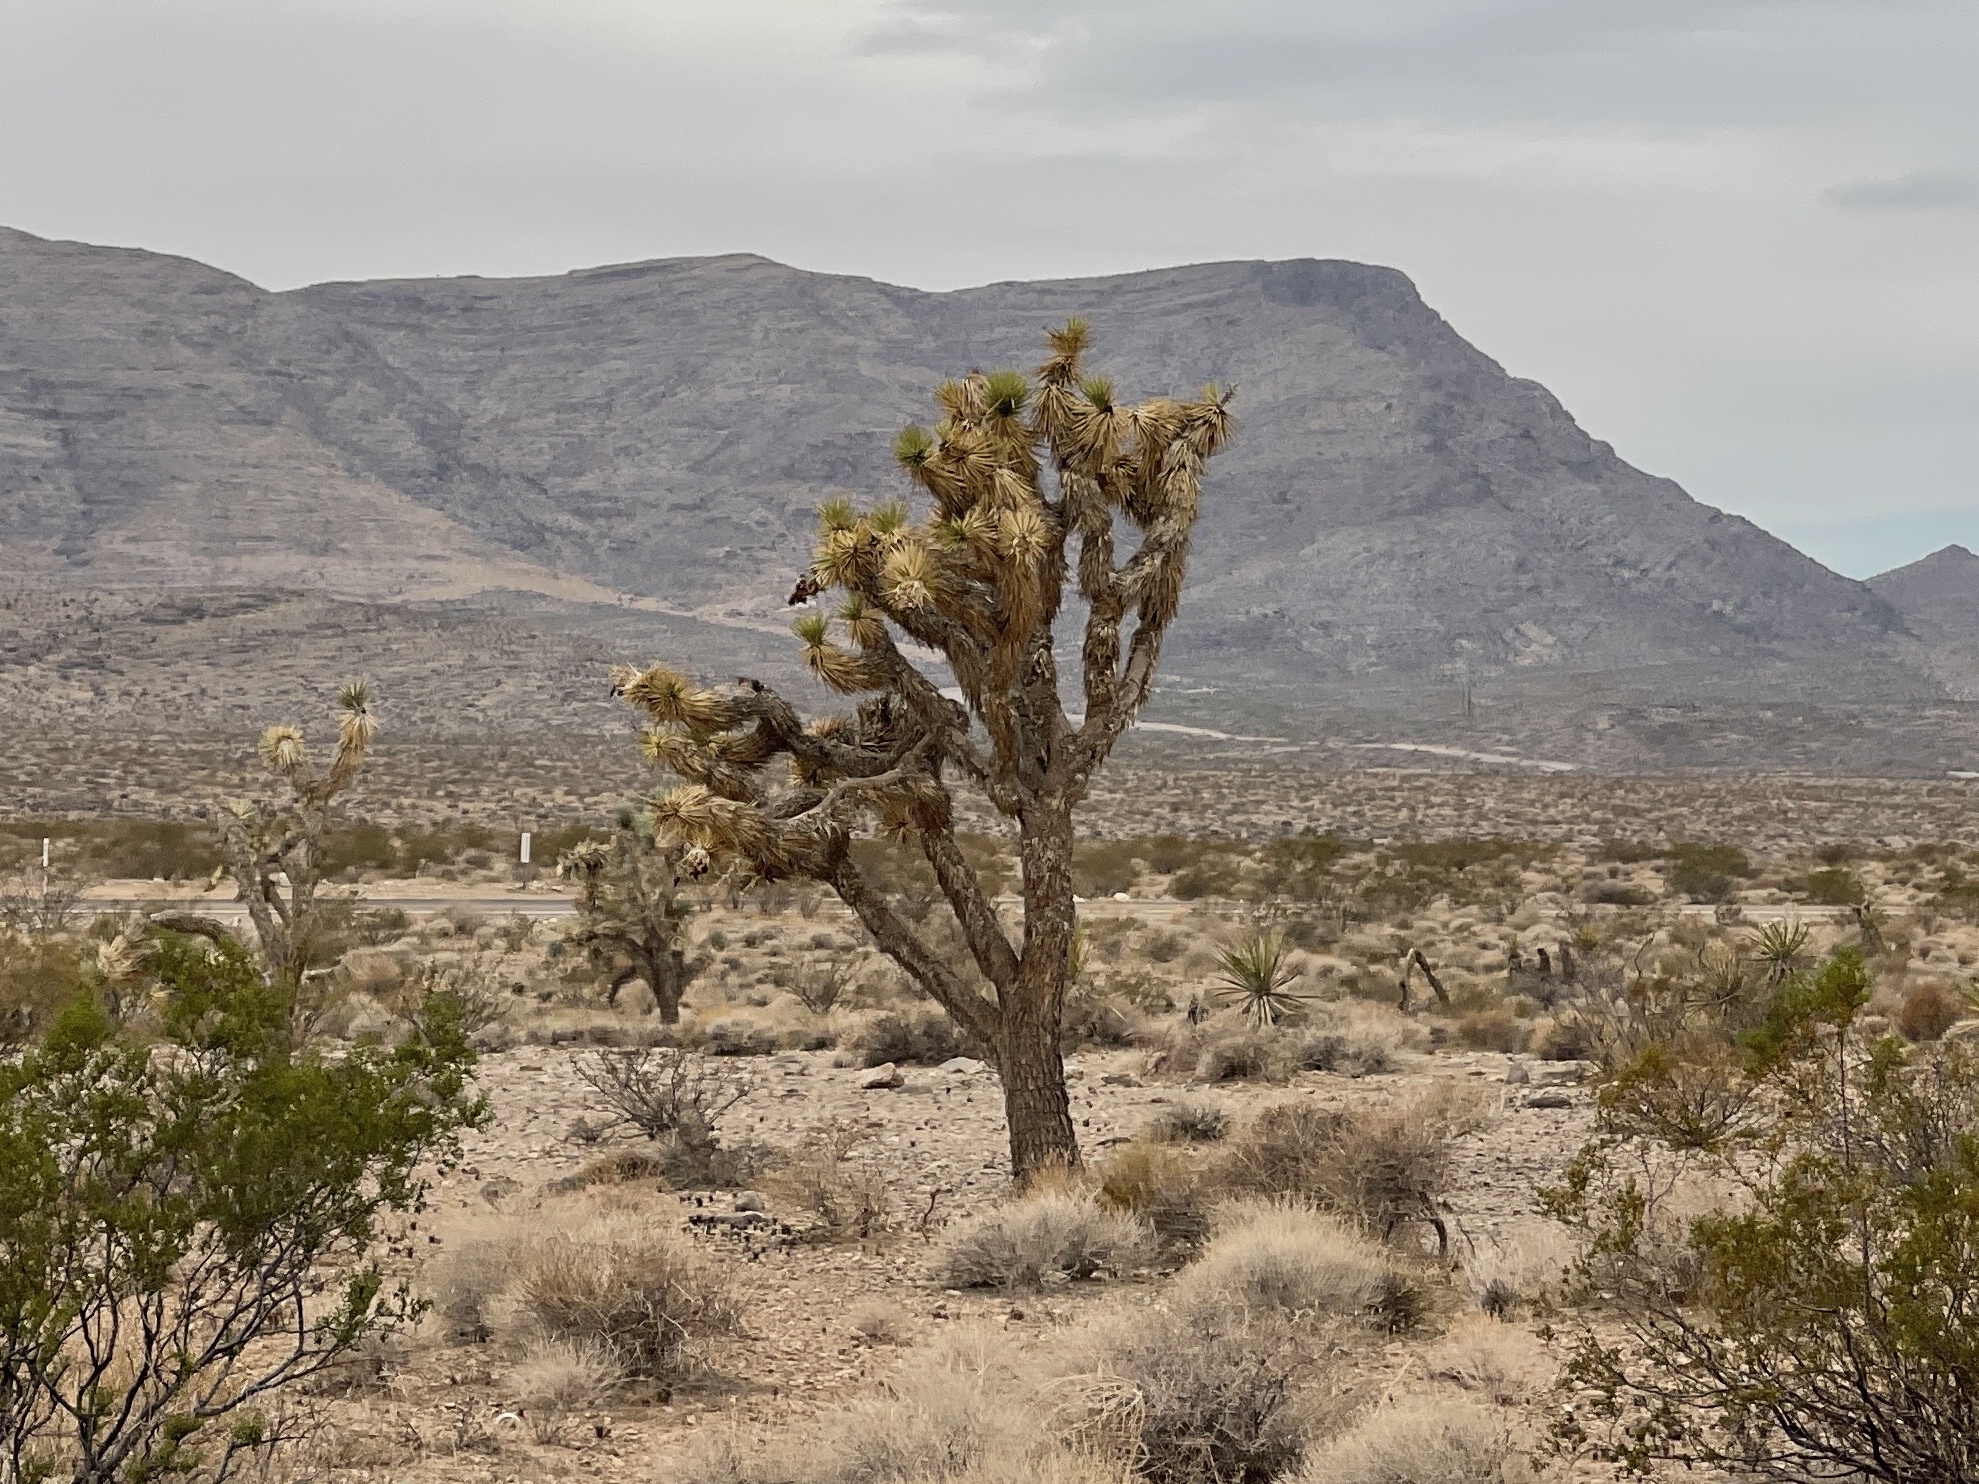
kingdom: Plantae
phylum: Tracheophyta
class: Liliopsida
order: Asparagales
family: Asparagaceae
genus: Yucca
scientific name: Yucca brevifolia
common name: Joshua tree
